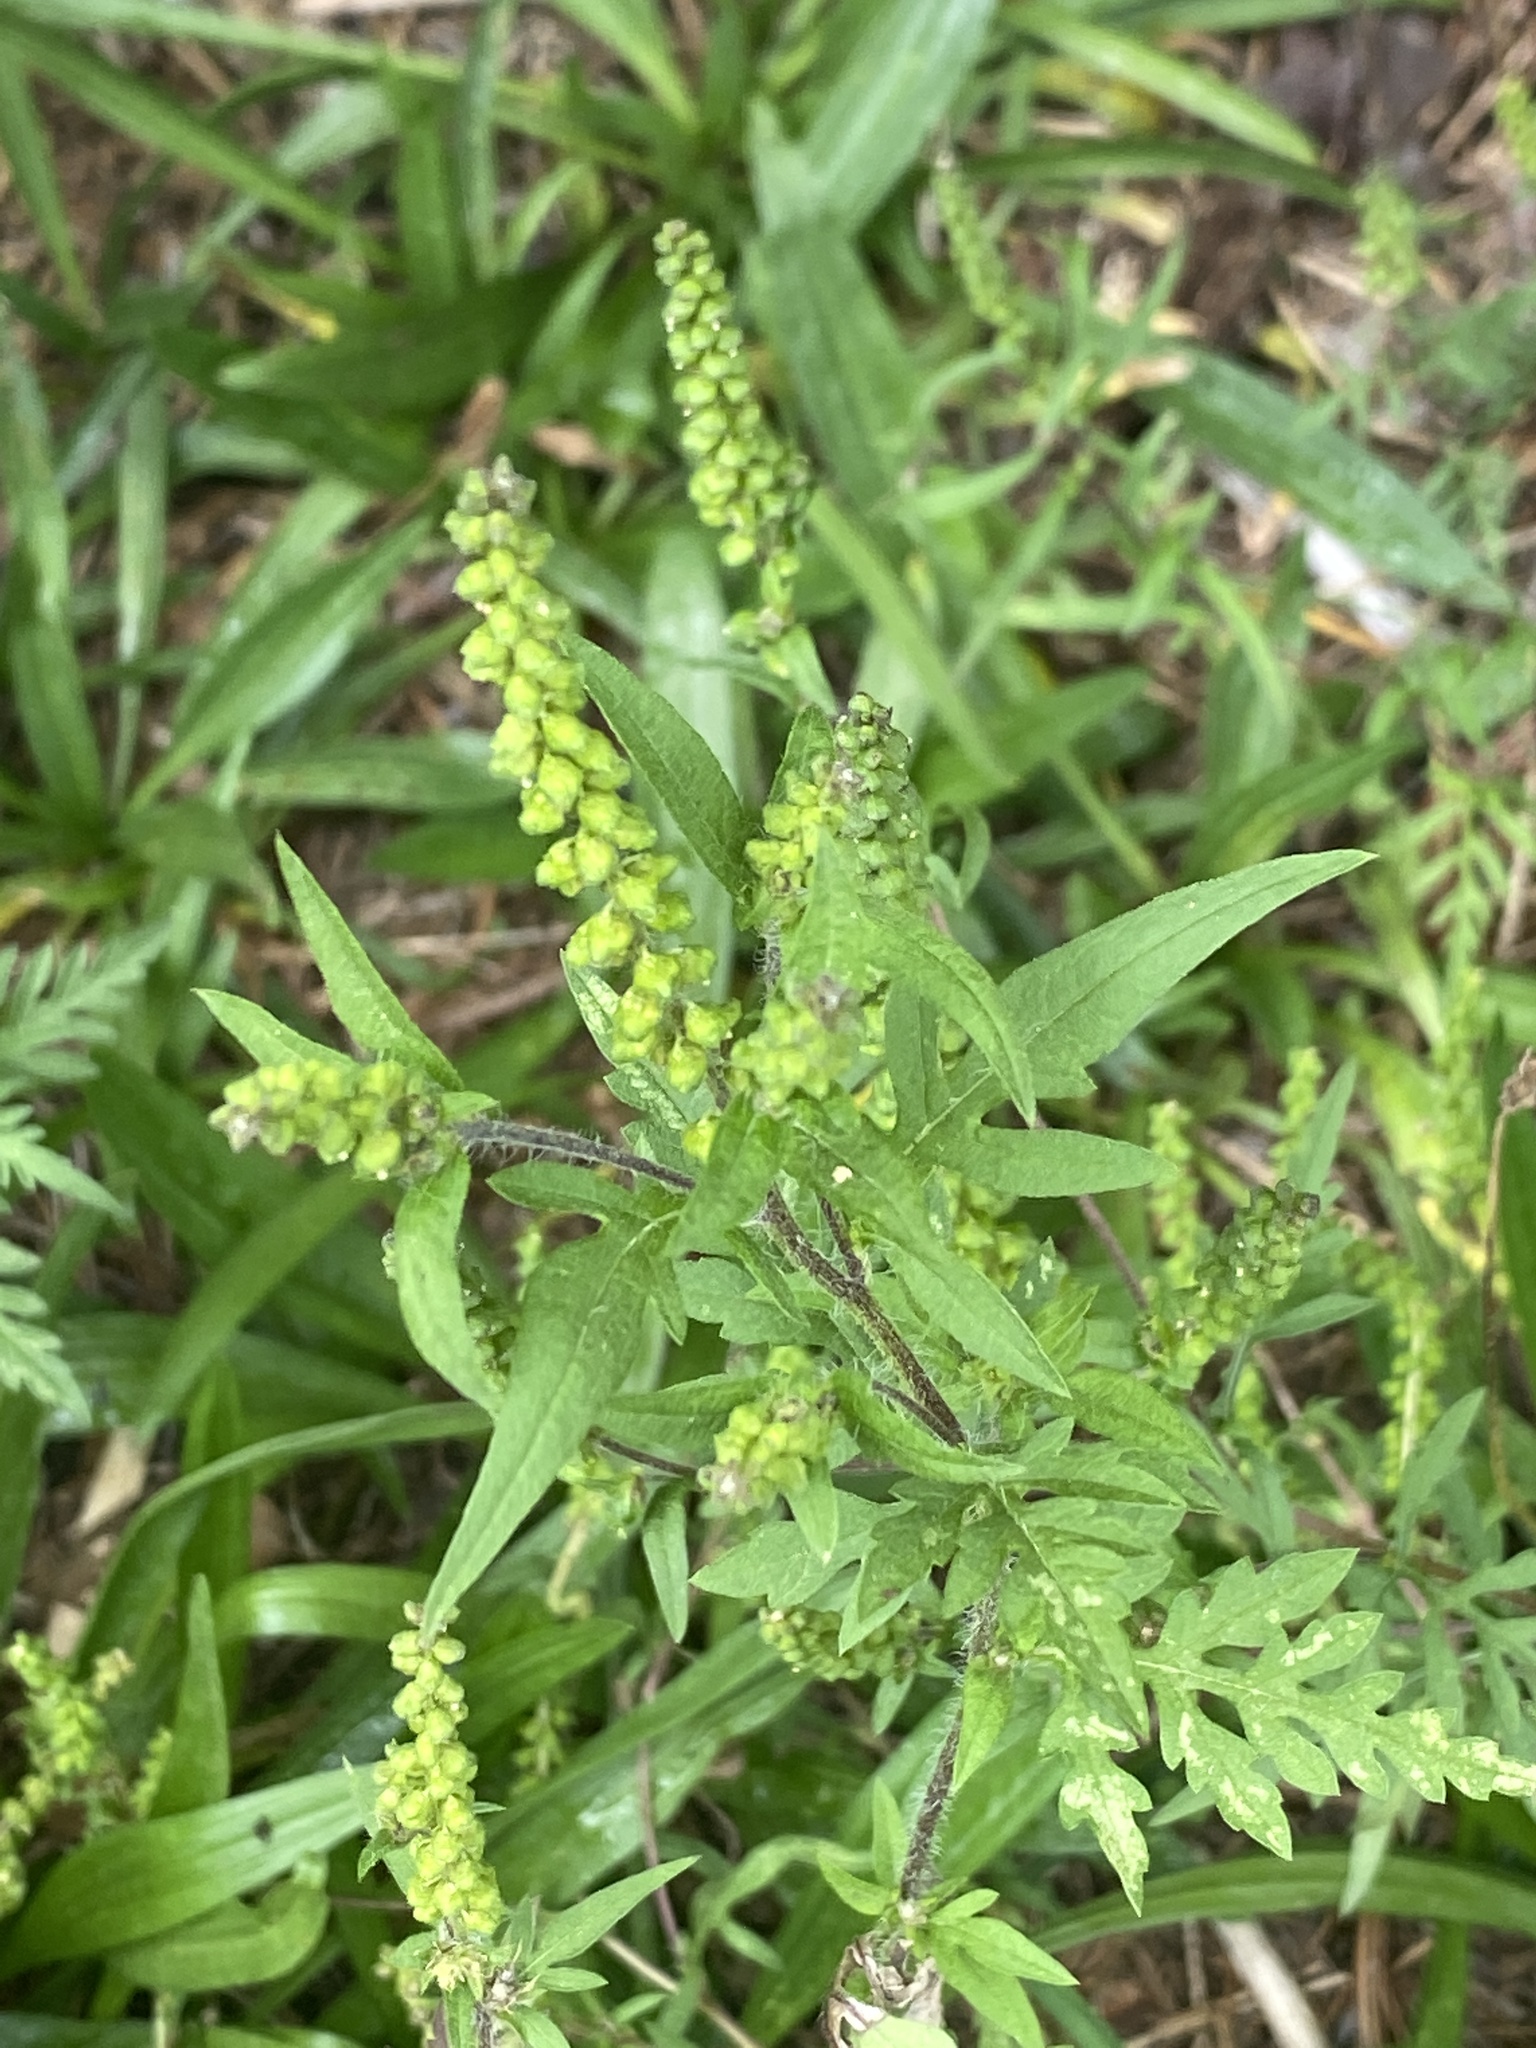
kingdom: Plantae
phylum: Tracheophyta
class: Magnoliopsida
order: Asterales
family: Asteraceae
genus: Ambrosia
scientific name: Ambrosia artemisiifolia
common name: Annual ragweed
